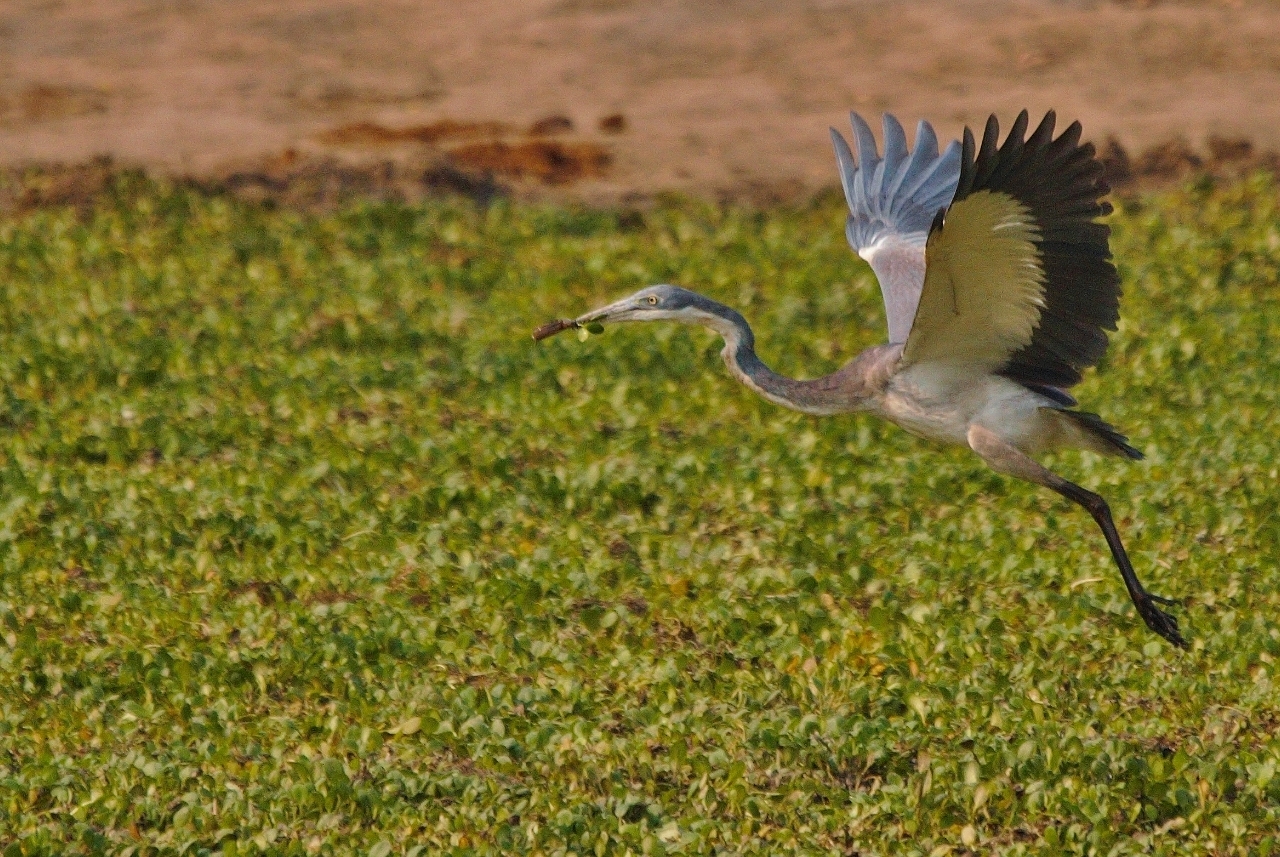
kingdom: Animalia
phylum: Chordata
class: Aves
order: Pelecaniformes
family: Ardeidae
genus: Ardea
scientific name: Ardea melanocephala
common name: Black-headed heron
